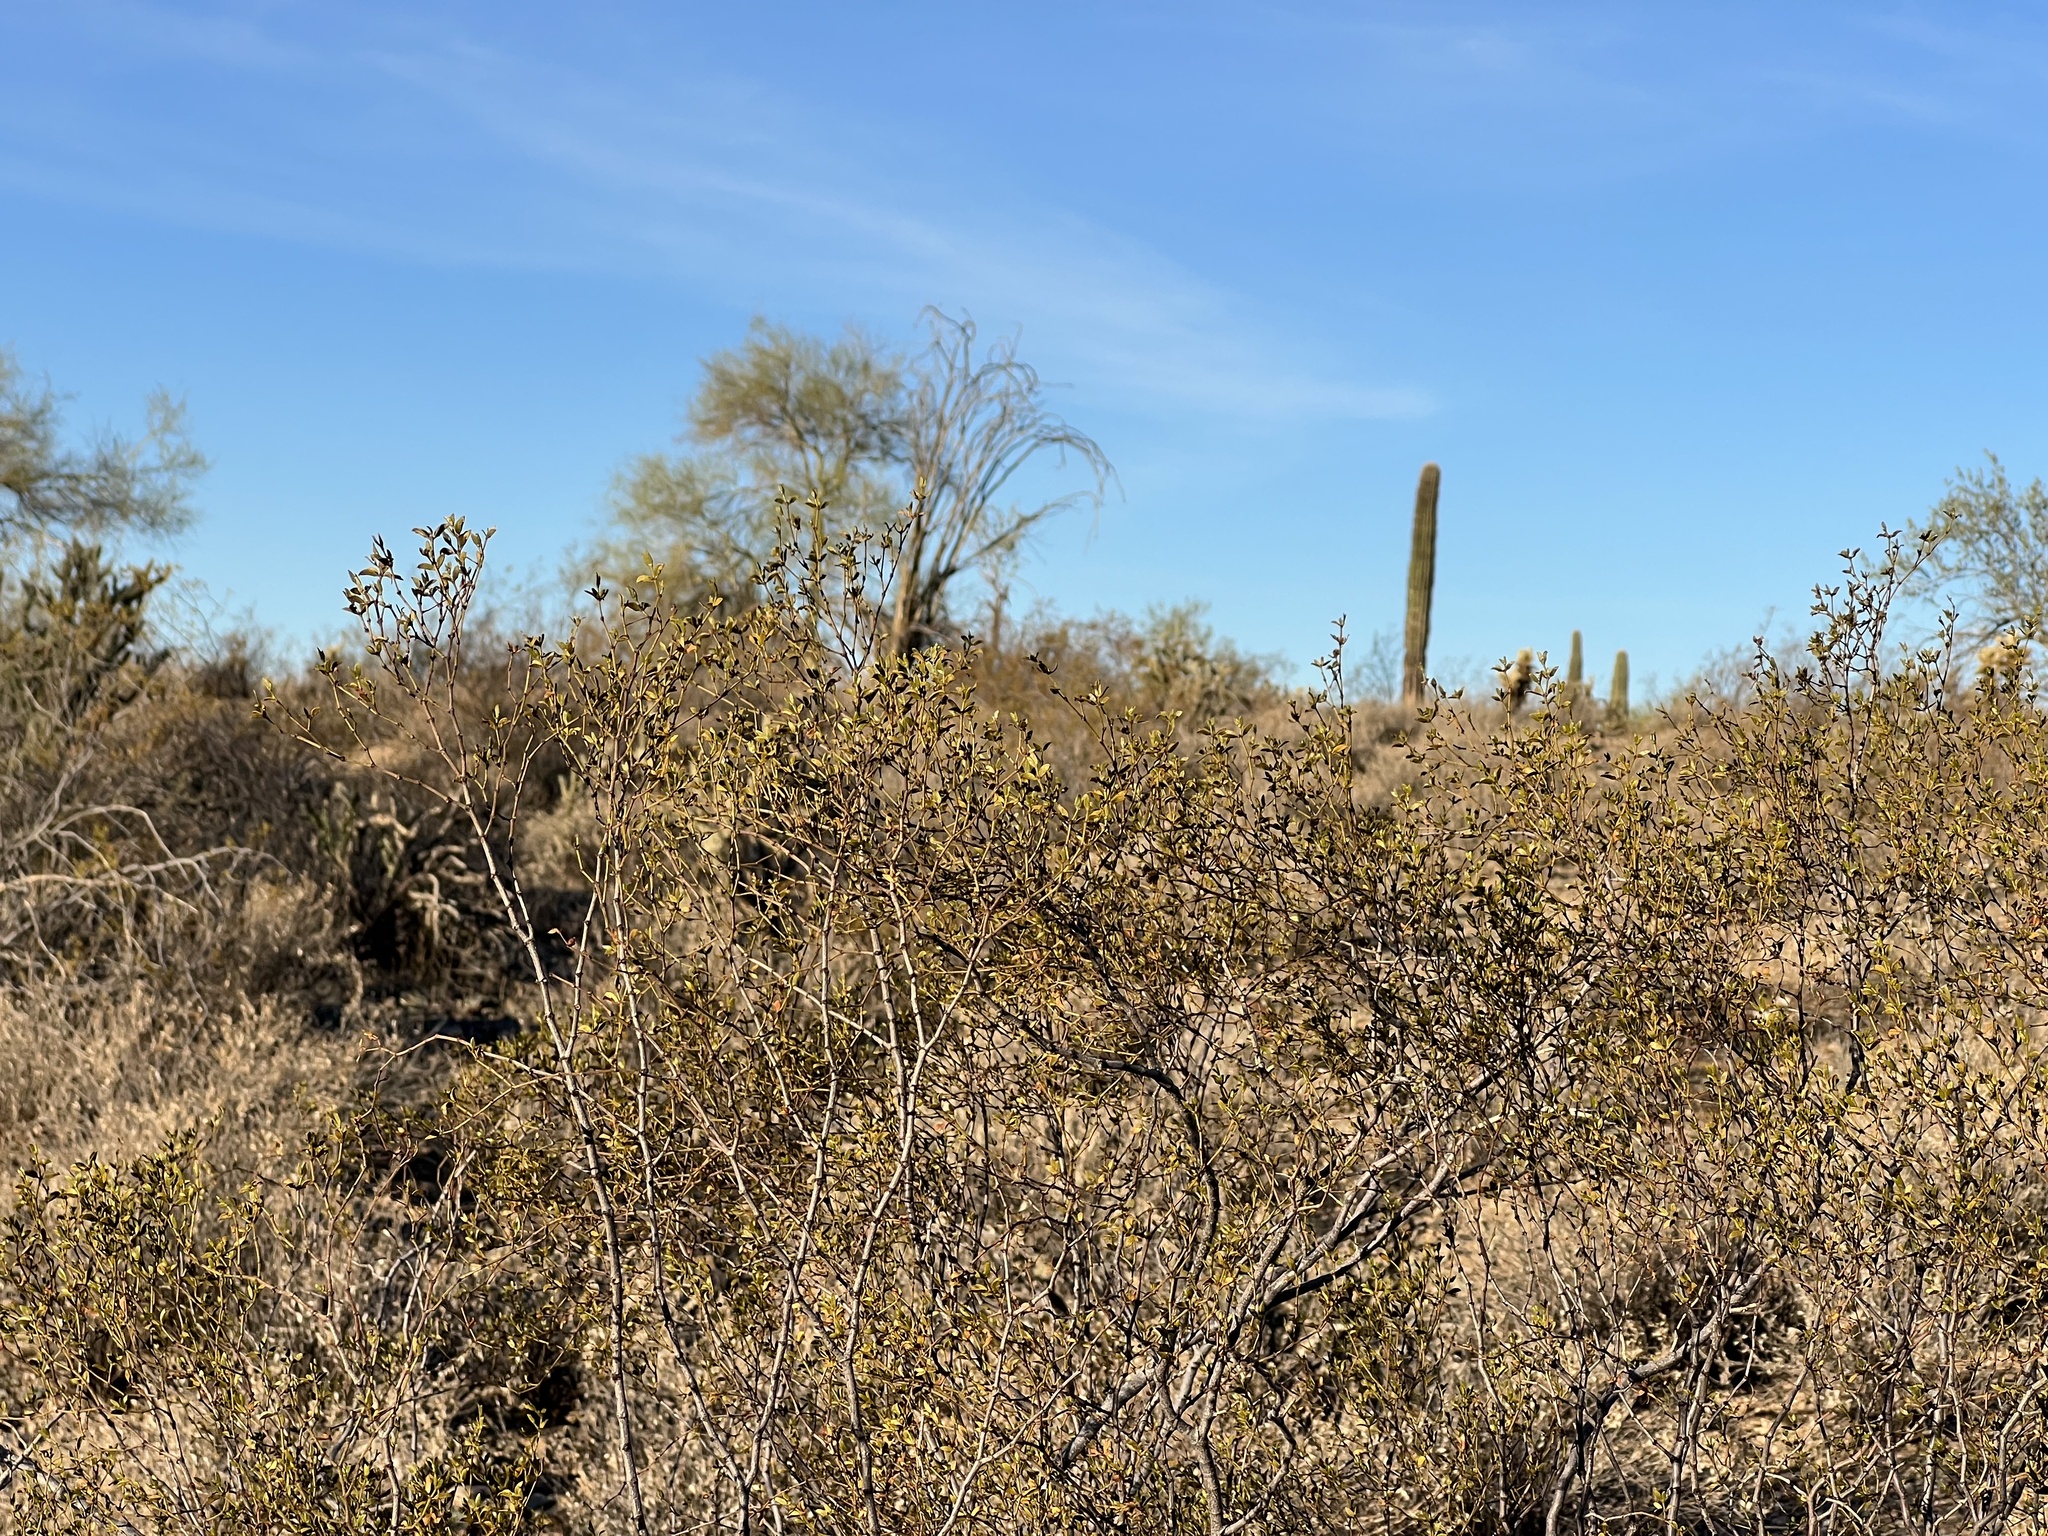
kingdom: Plantae
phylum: Tracheophyta
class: Magnoliopsida
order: Zygophyllales
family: Zygophyllaceae
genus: Larrea
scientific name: Larrea tridentata
